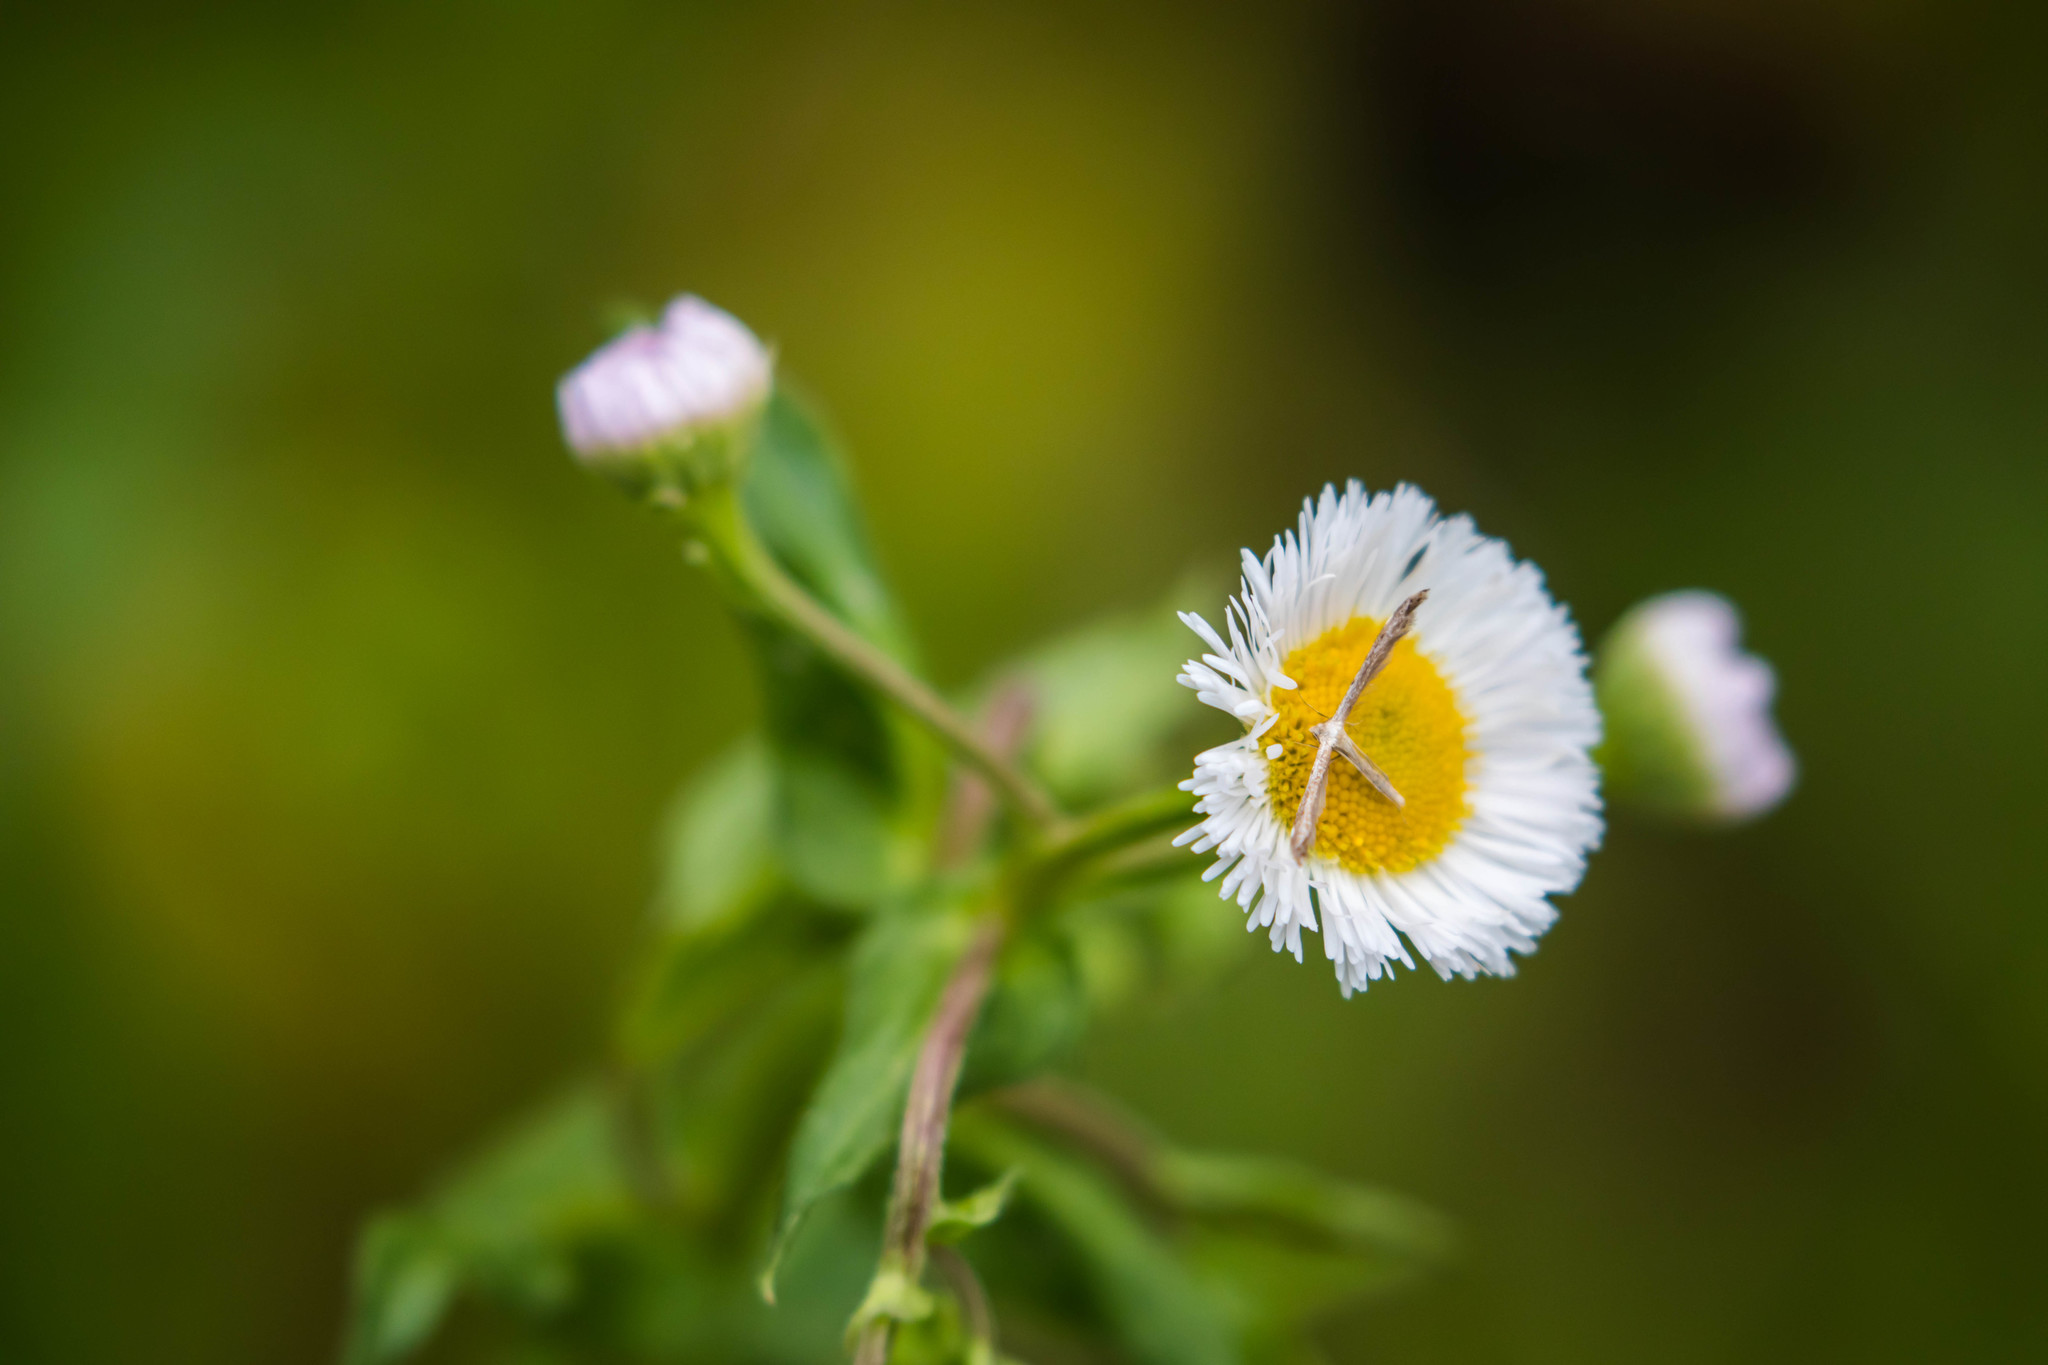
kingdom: Animalia
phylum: Arthropoda
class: Insecta
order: Lepidoptera
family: Pterophoridae
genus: Lioptilodes
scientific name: Lioptilodes albistriolatus
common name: Moth
